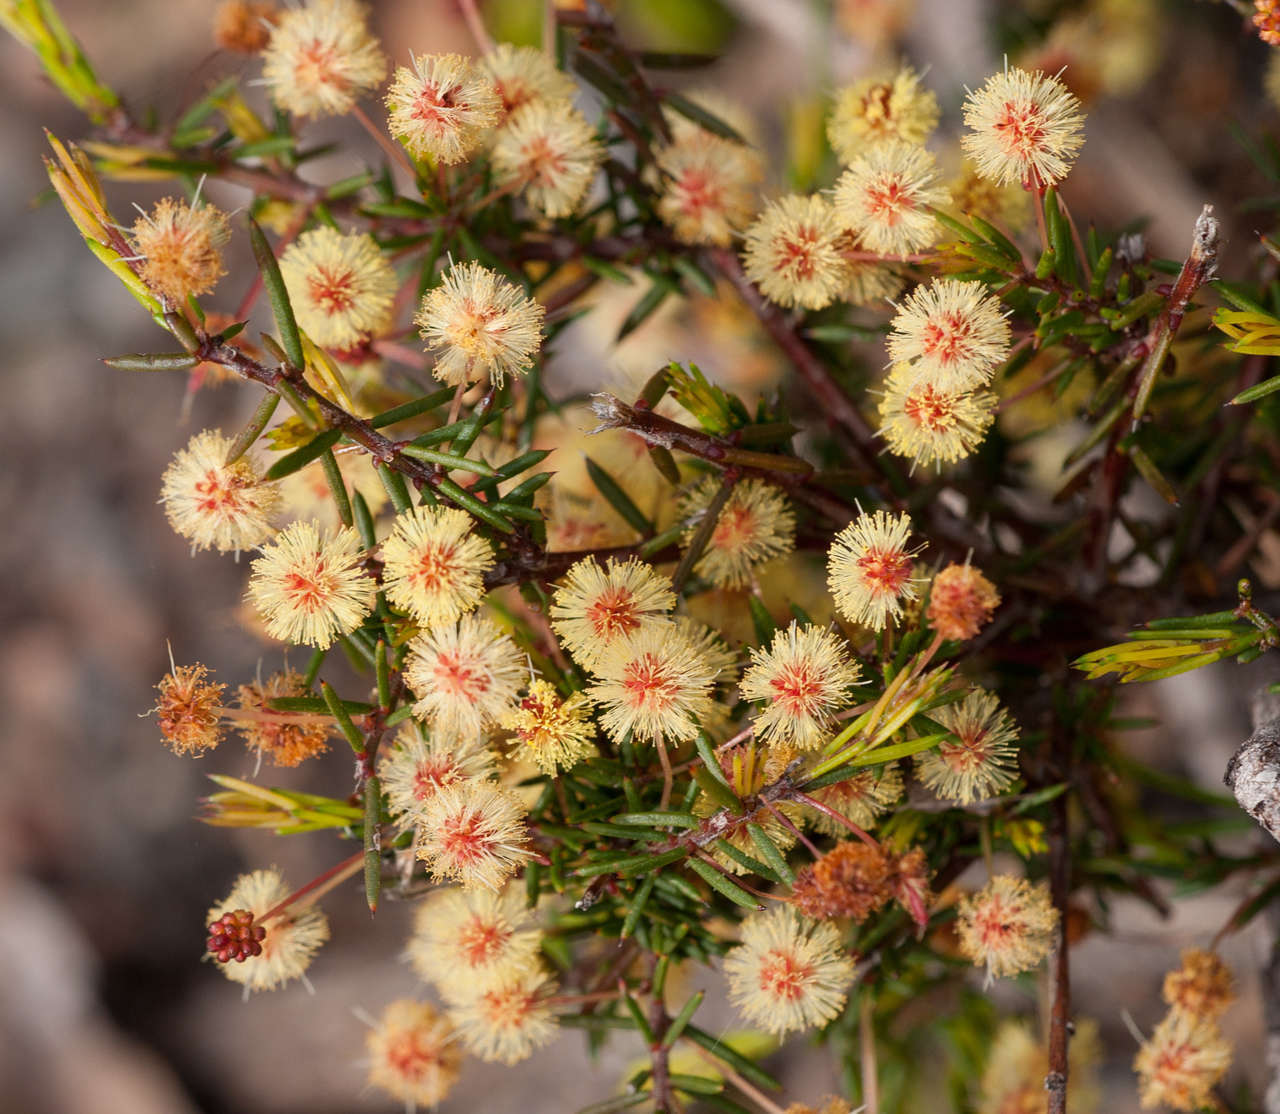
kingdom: Plantae
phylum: Tracheophyta
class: Magnoliopsida
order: Fabales
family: Fabaceae
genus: Acacia
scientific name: Acacia aculeatissima
